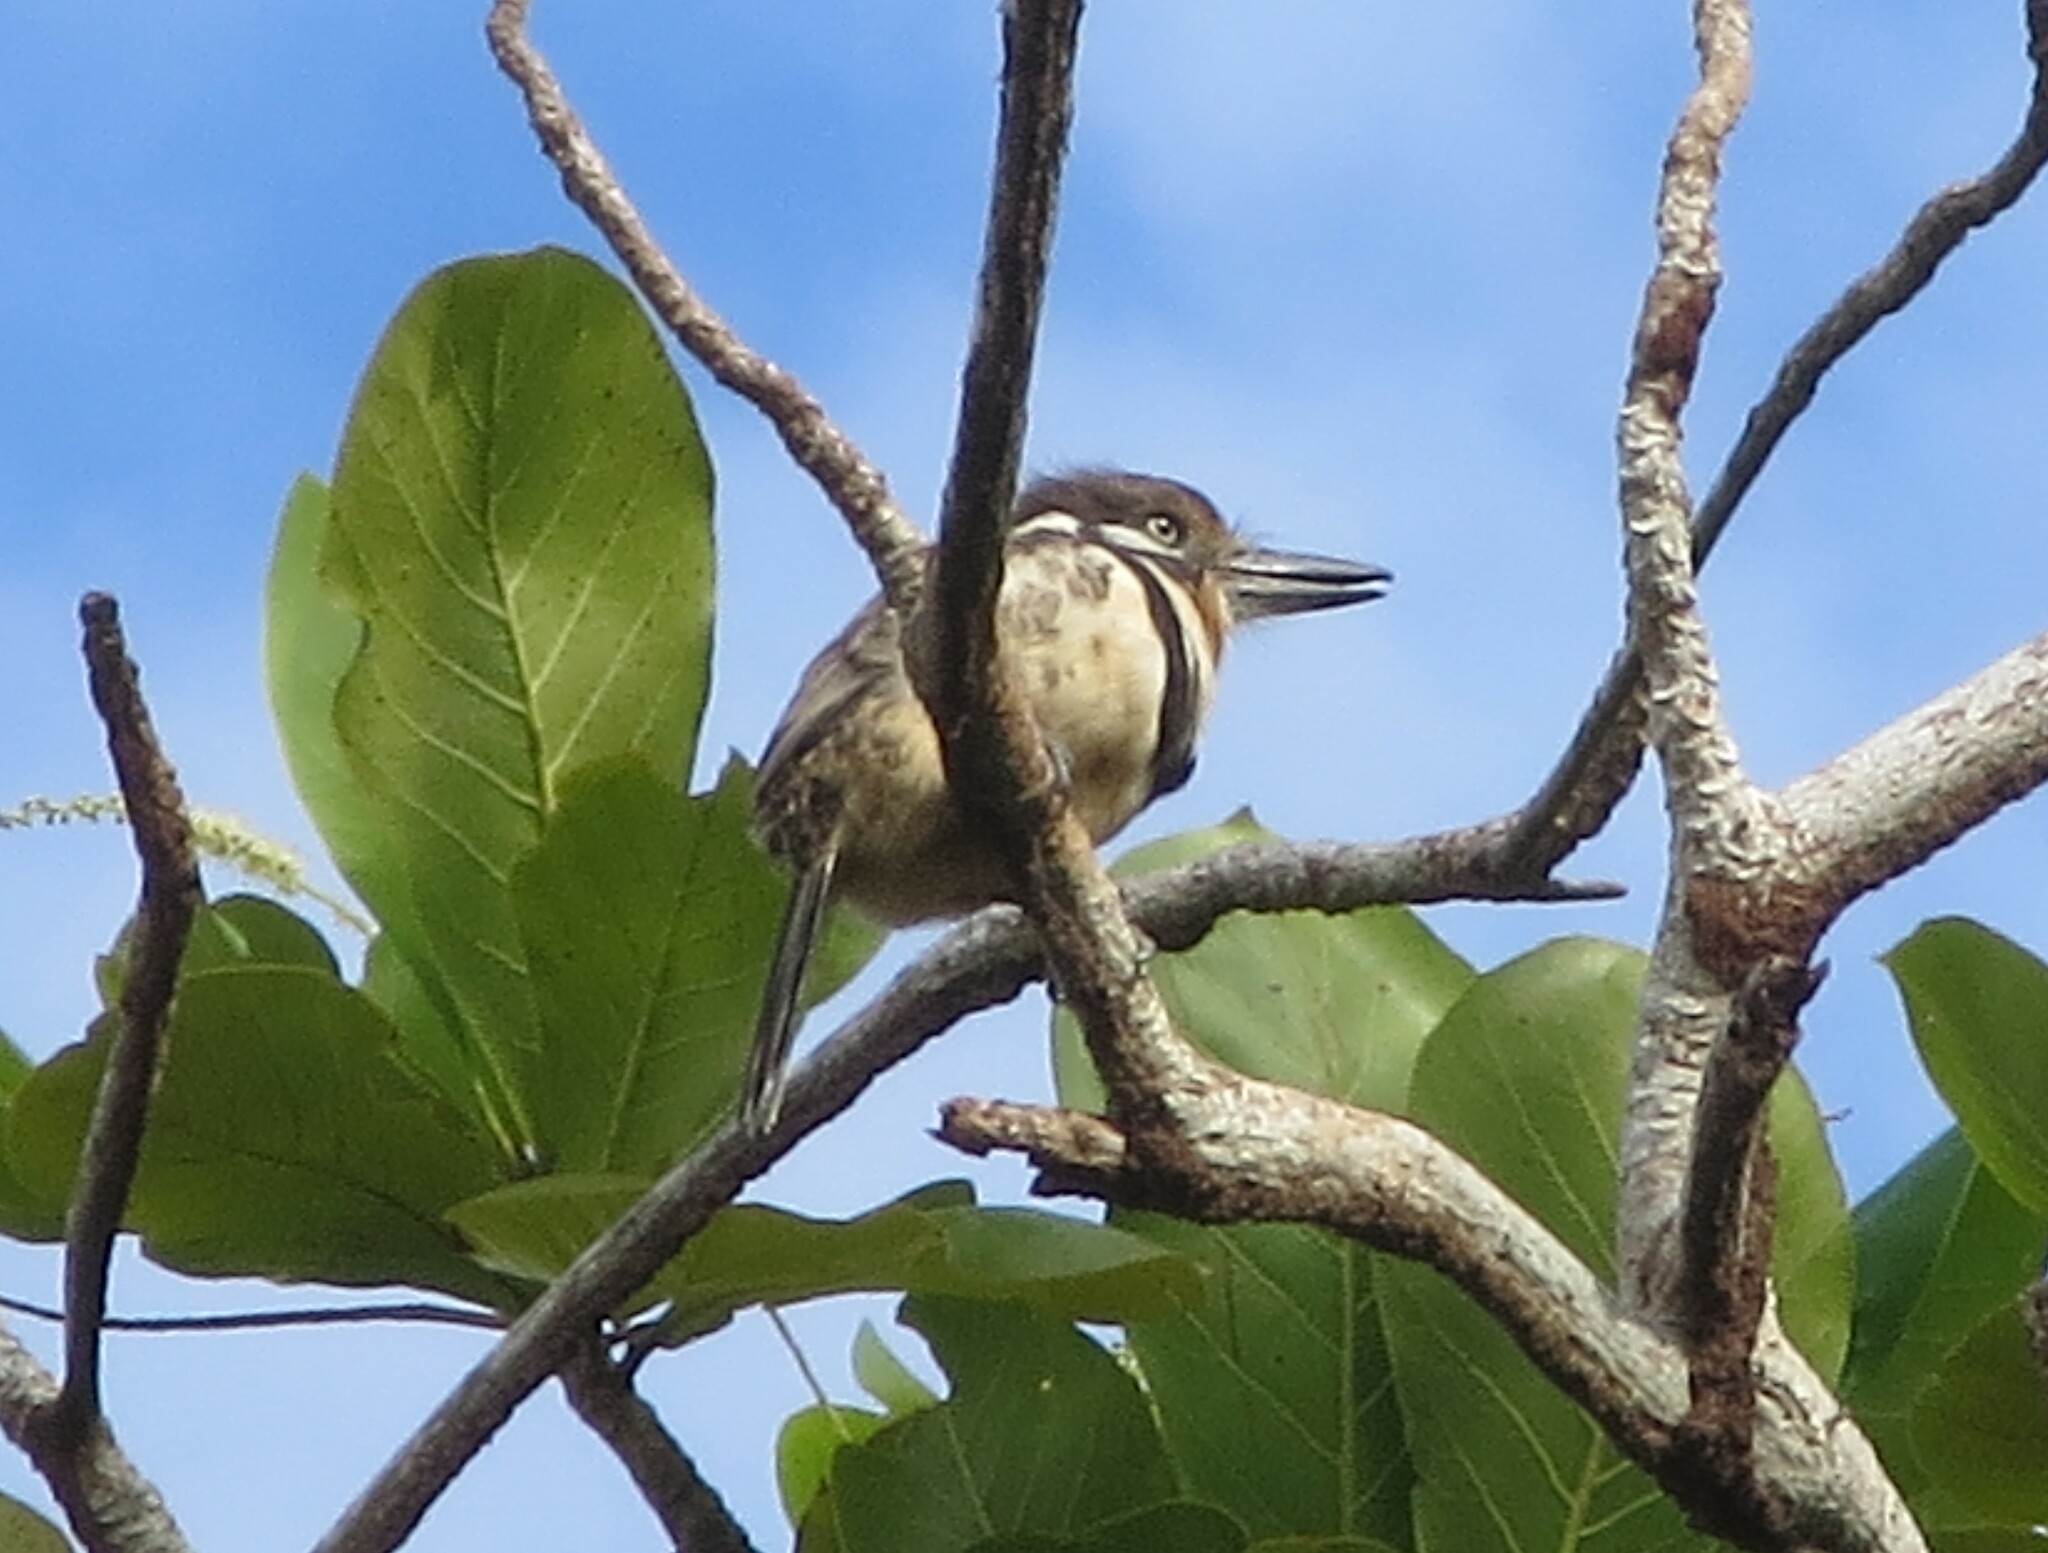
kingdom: Animalia
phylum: Chordata
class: Aves
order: Piciformes
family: Bucconidae
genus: Hypnelus
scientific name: Hypnelus ruficollis
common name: Russet-throated puffbird
